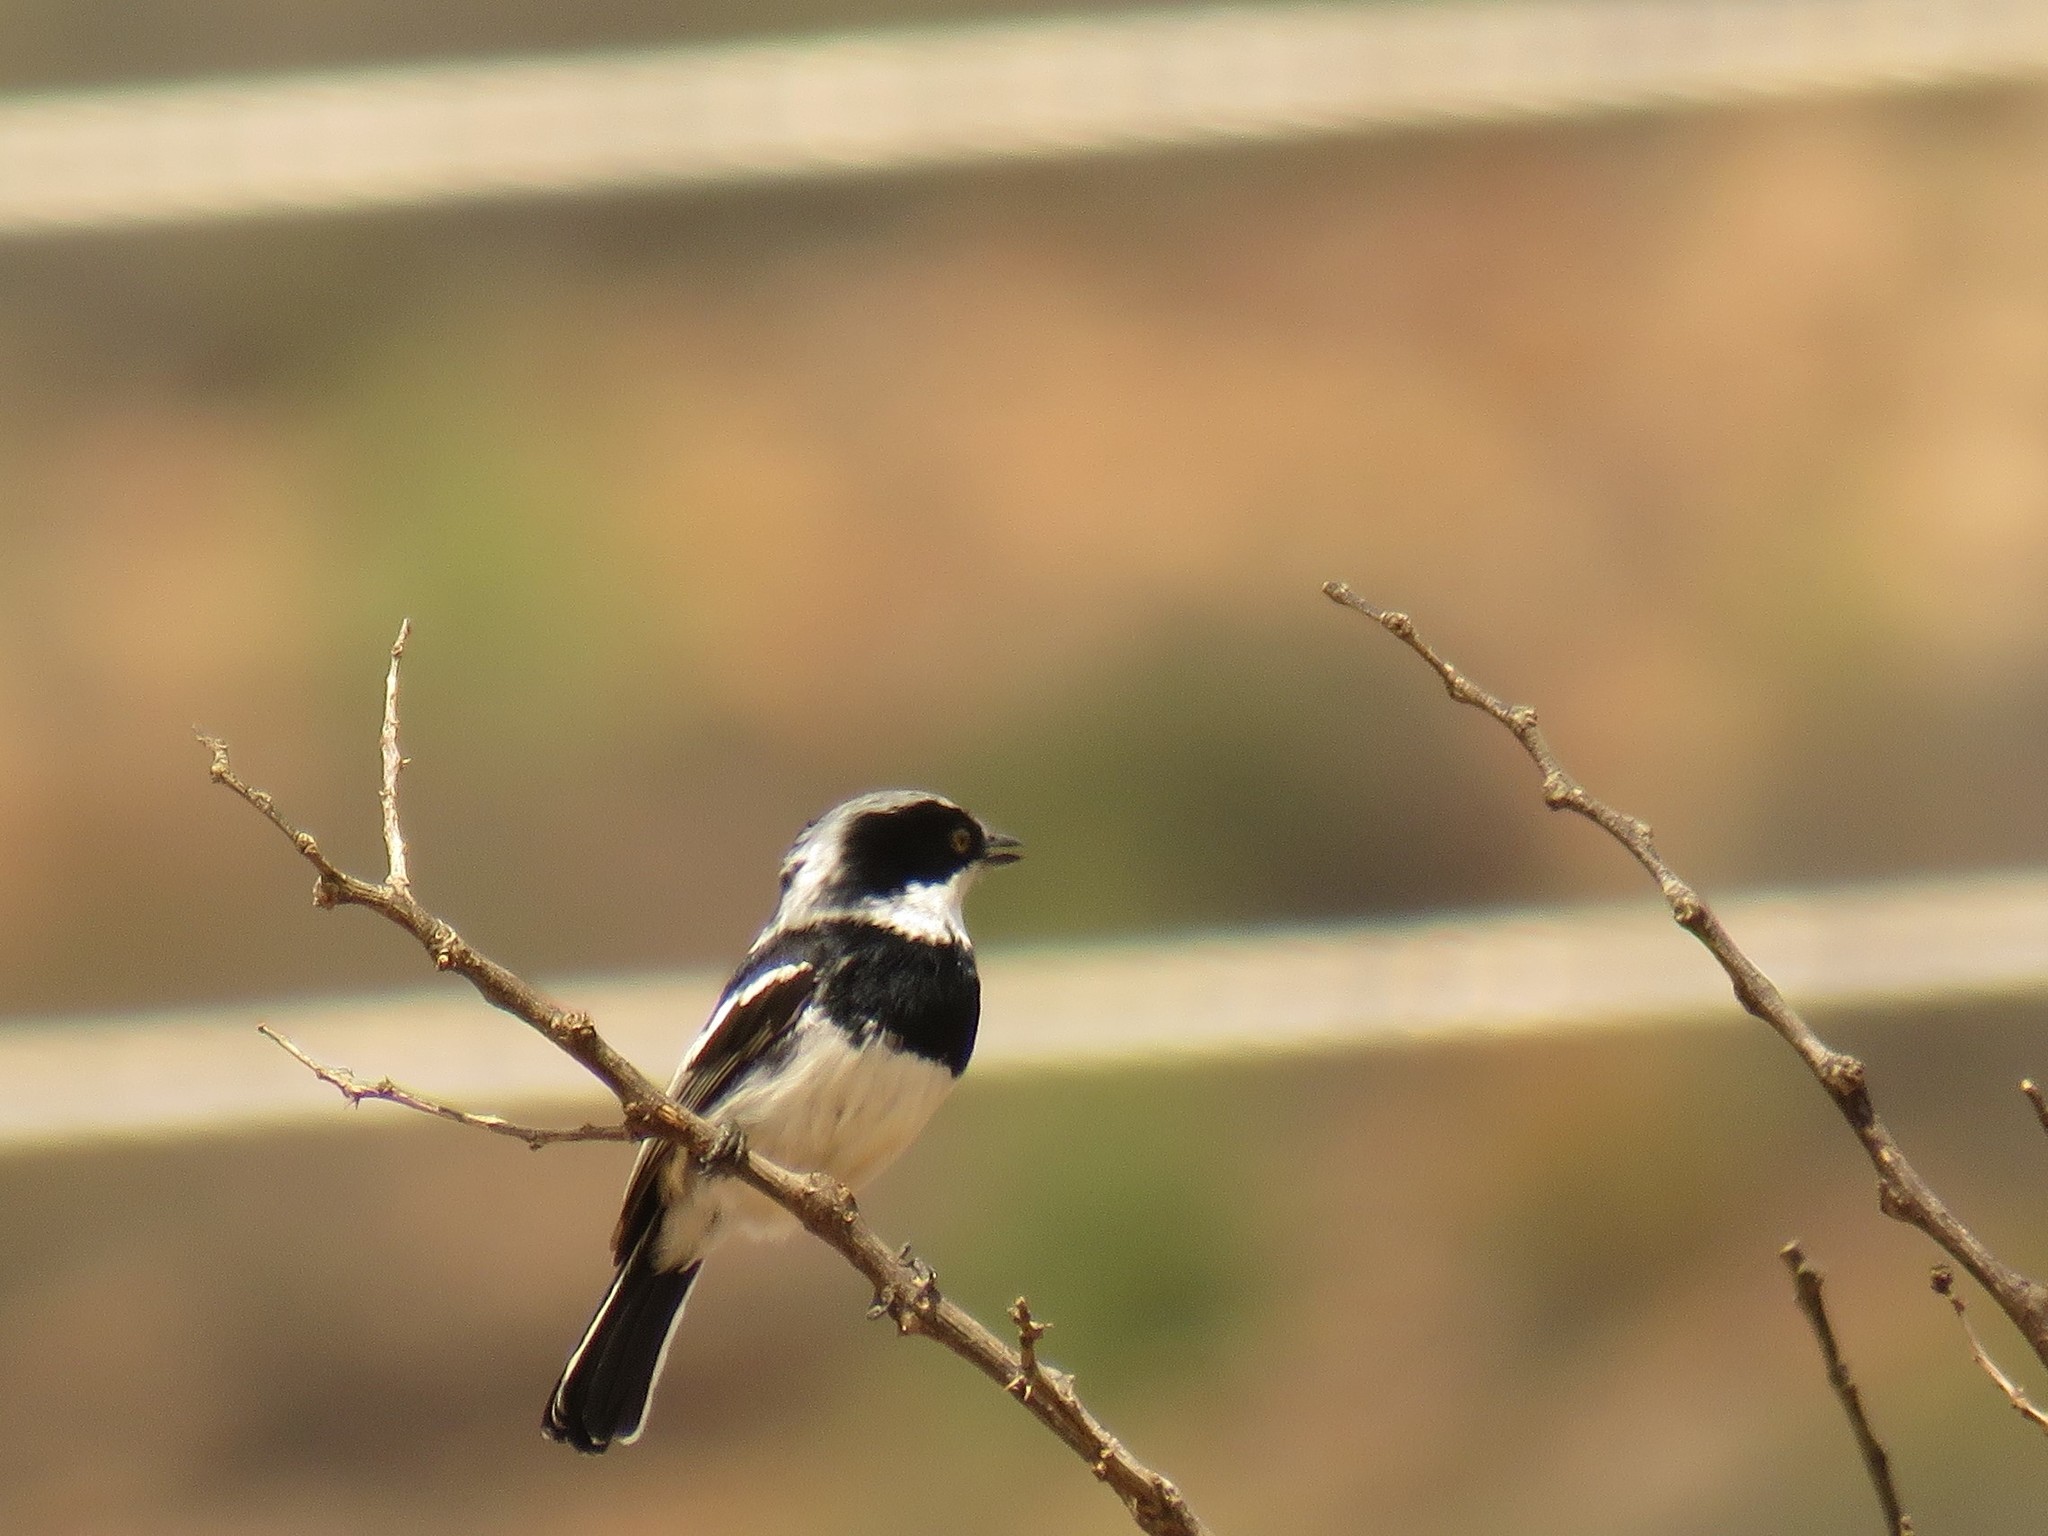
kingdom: Animalia
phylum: Chordata
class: Aves
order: Passeriformes
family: Platysteiridae
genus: Batis
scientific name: Batis pririt
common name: Pririt batis
